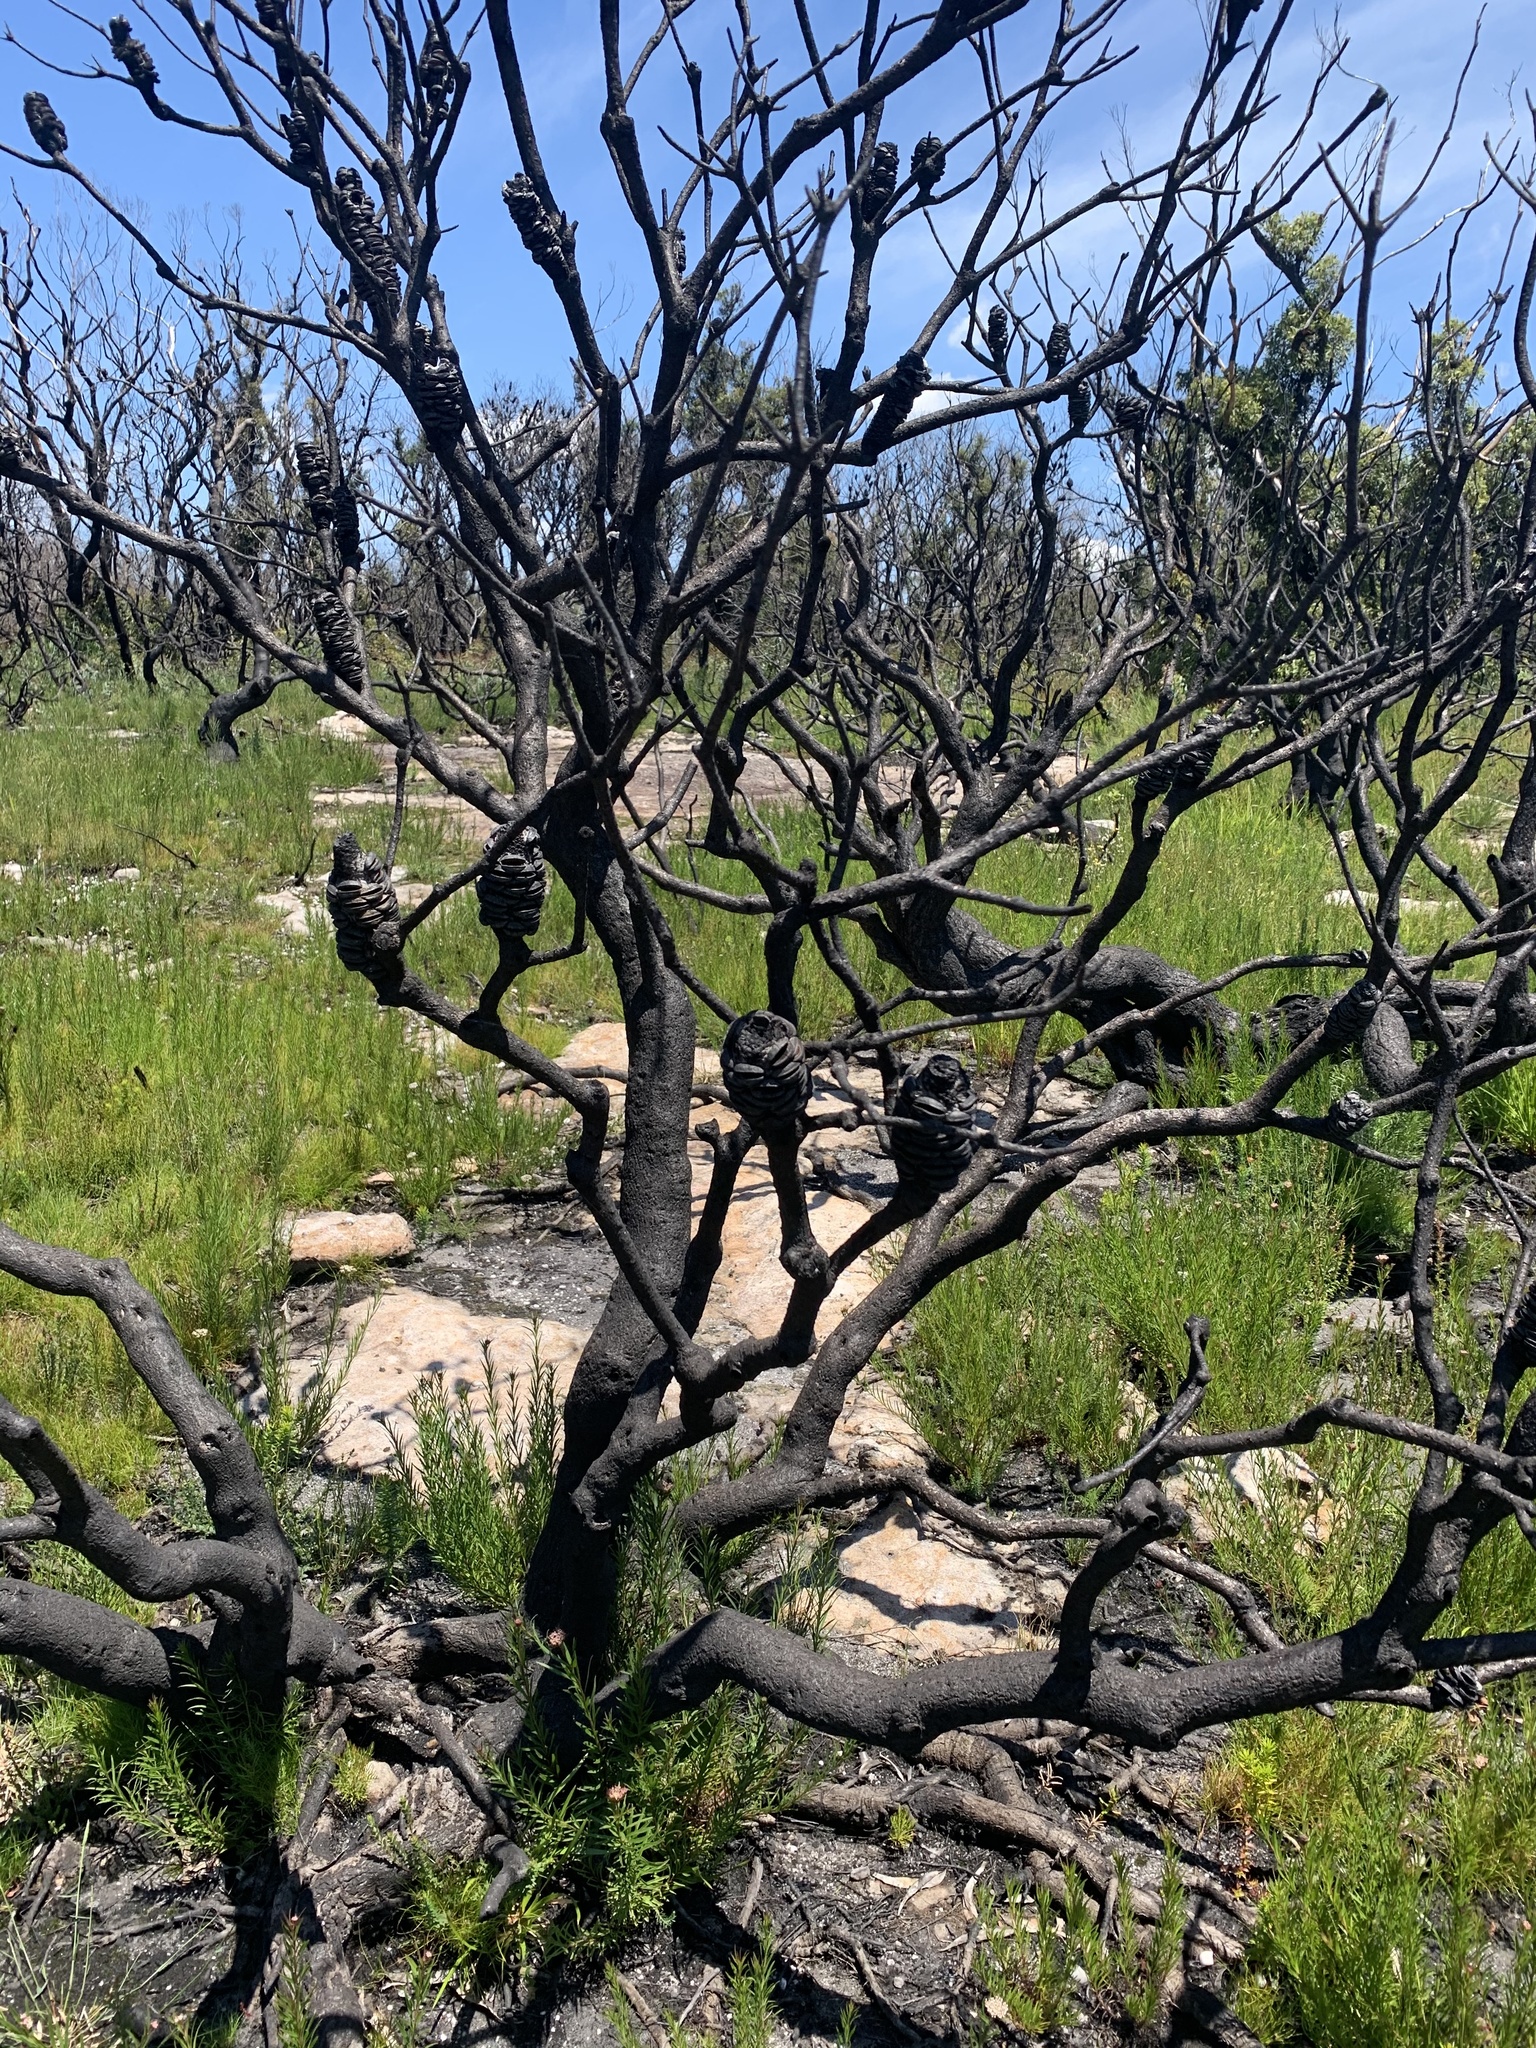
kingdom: Plantae
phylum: Tracheophyta
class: Magnoliopsida
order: Proteales
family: Proteaceae
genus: Banksia
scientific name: Banksia ericifolia
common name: Heath-leaf banksia
